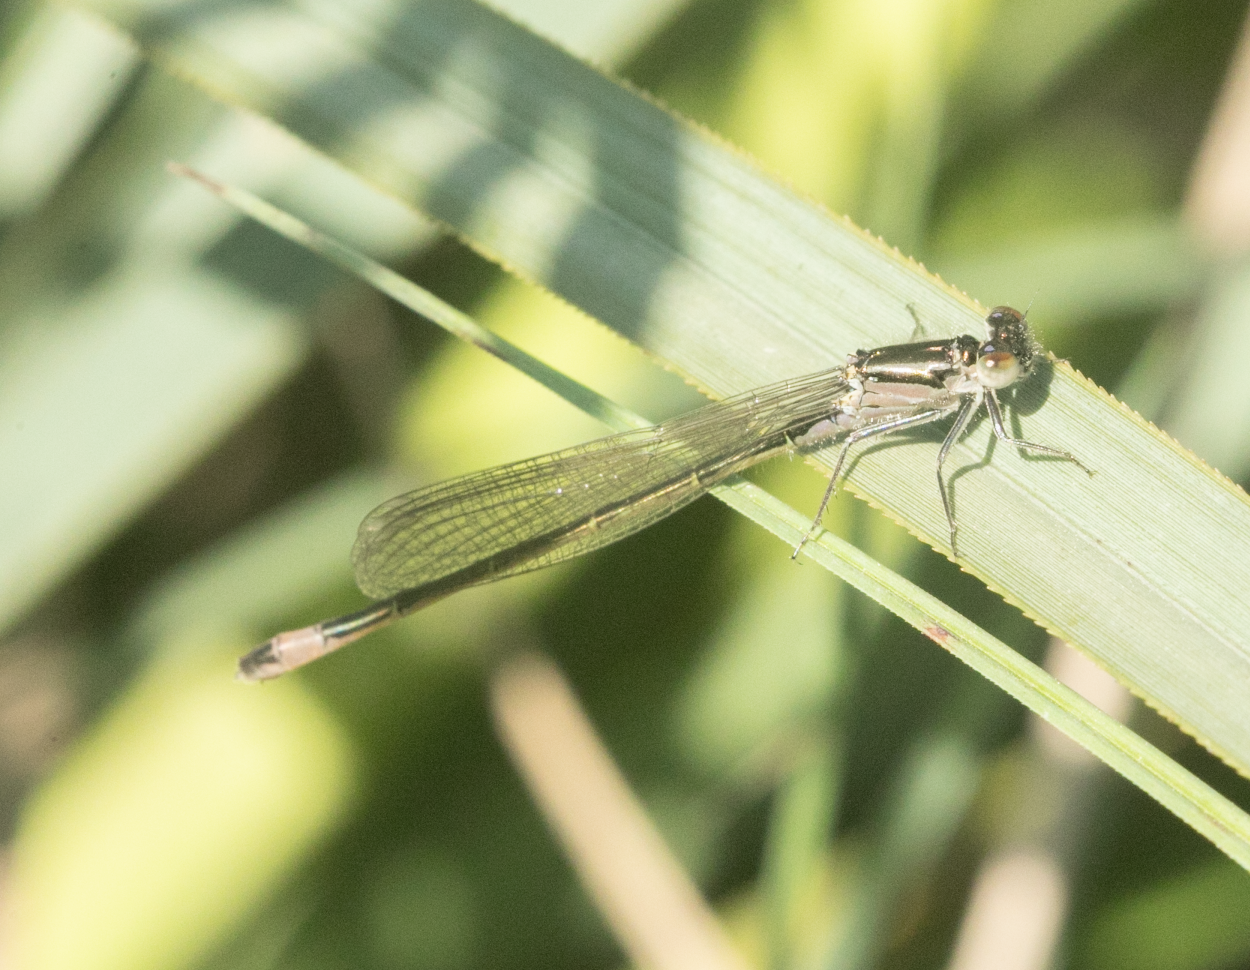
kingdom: Animalia
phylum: Arthropoda
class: Insecta
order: Odonata
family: Coenagrionidae
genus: Ischnura
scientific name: Ischnura elegans
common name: Blue-tailed damselfly
